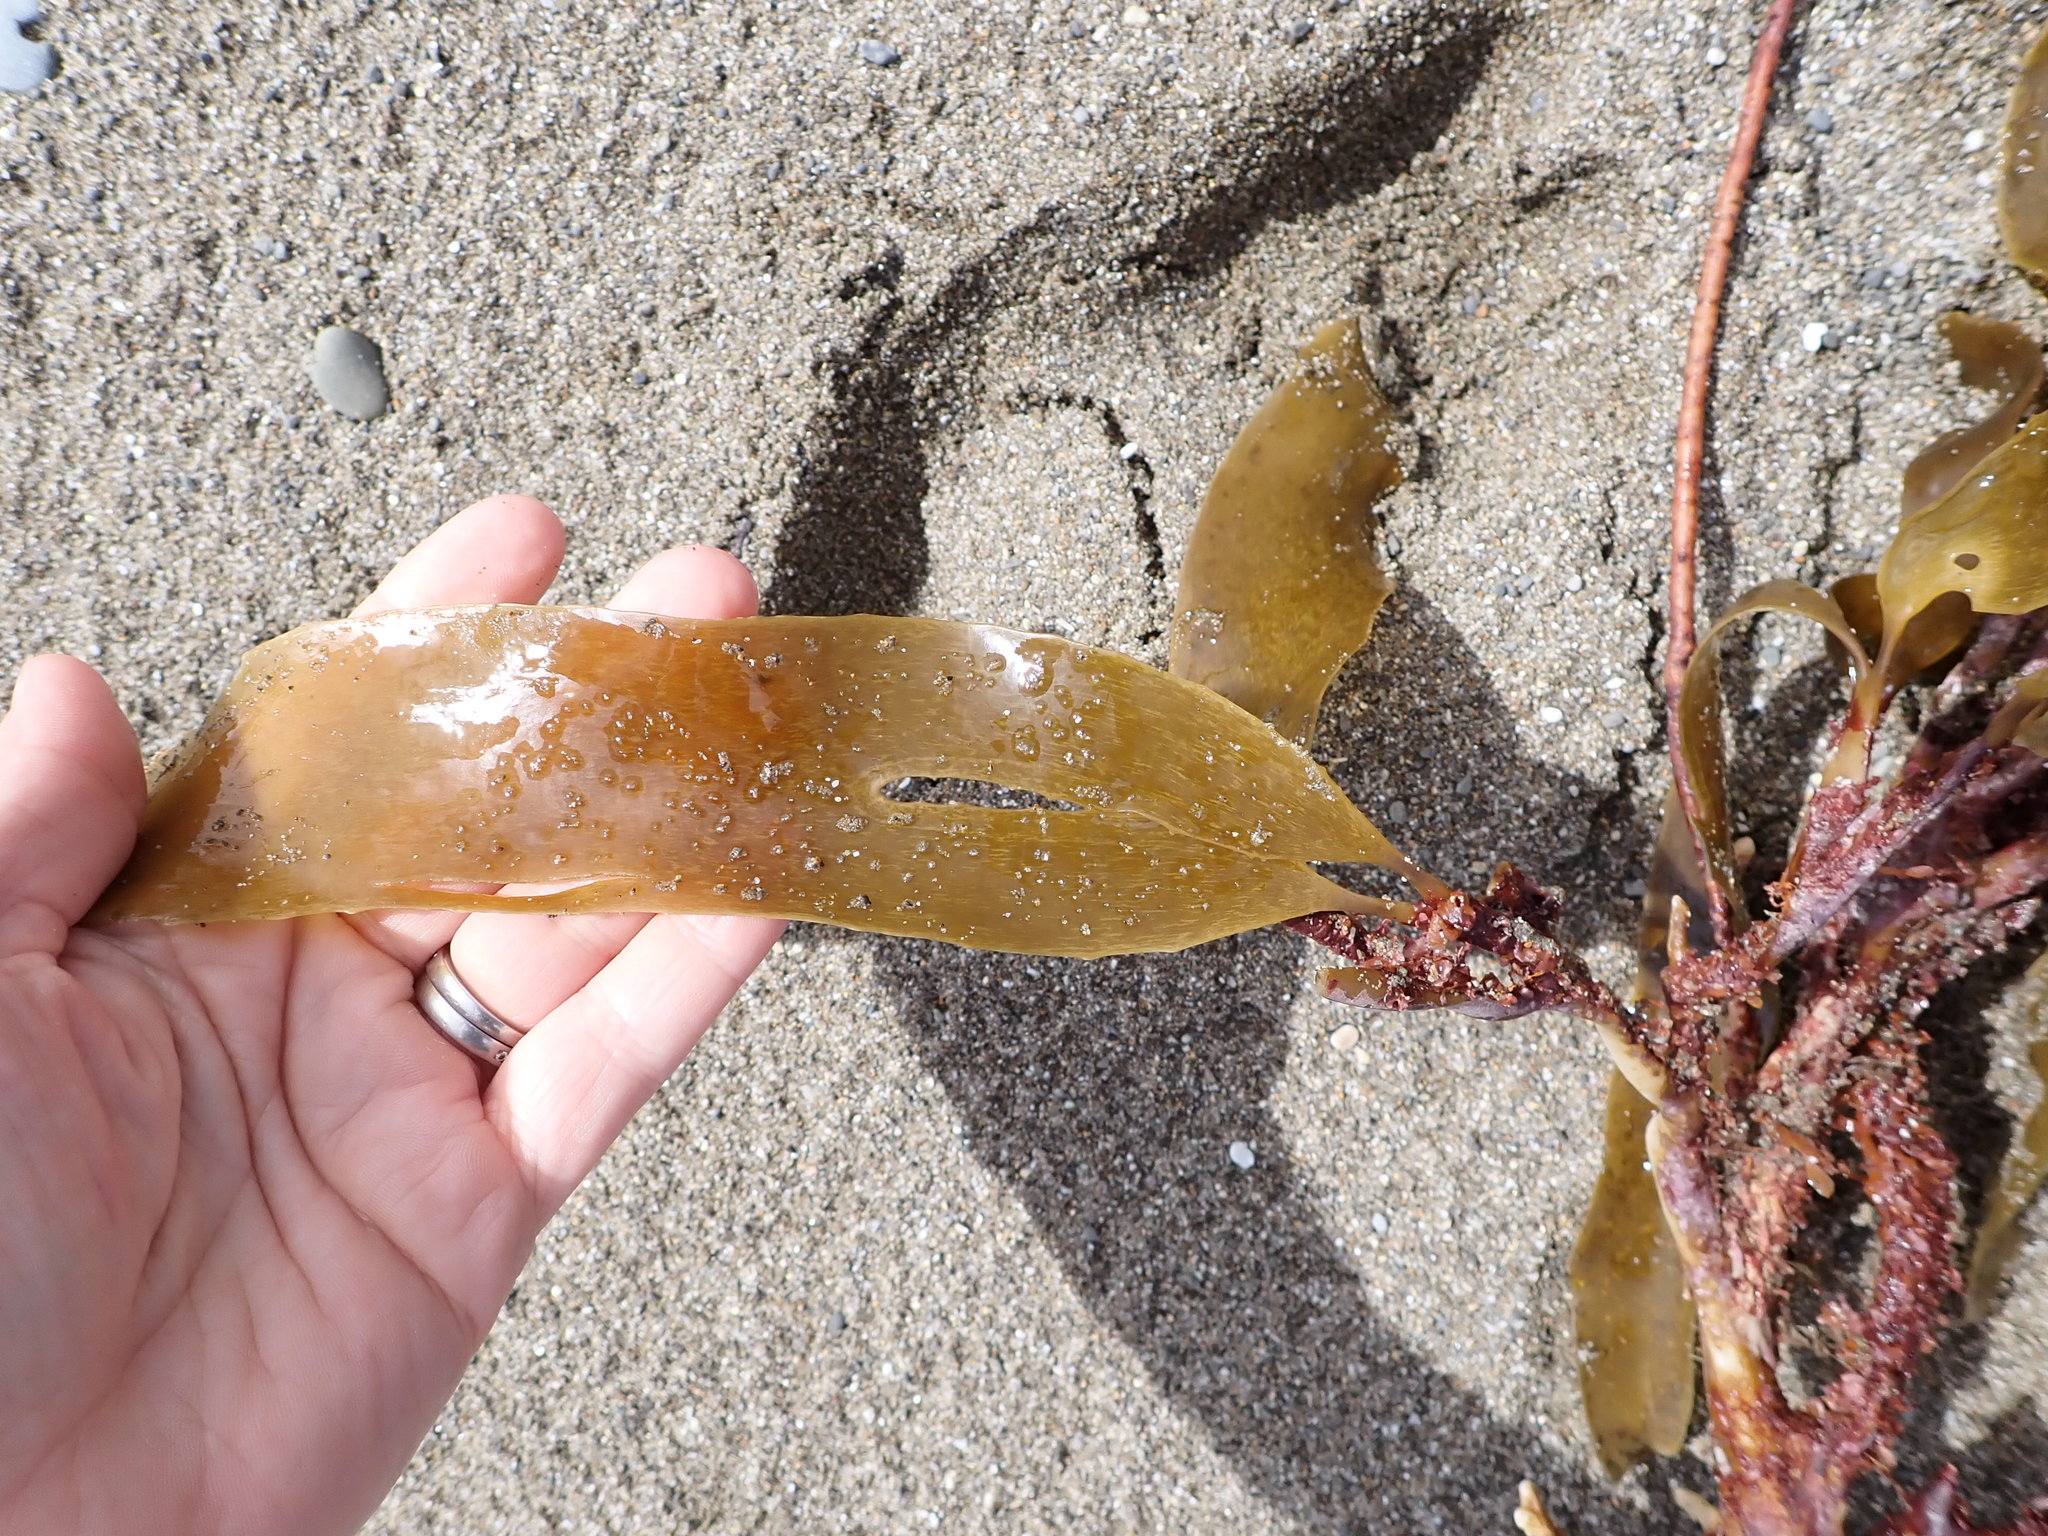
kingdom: Chromista
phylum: Ochrophyta
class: Phaeophyceae
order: Laminariales
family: Lessoniaceae
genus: Lessonia
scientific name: Lessonia variegata
